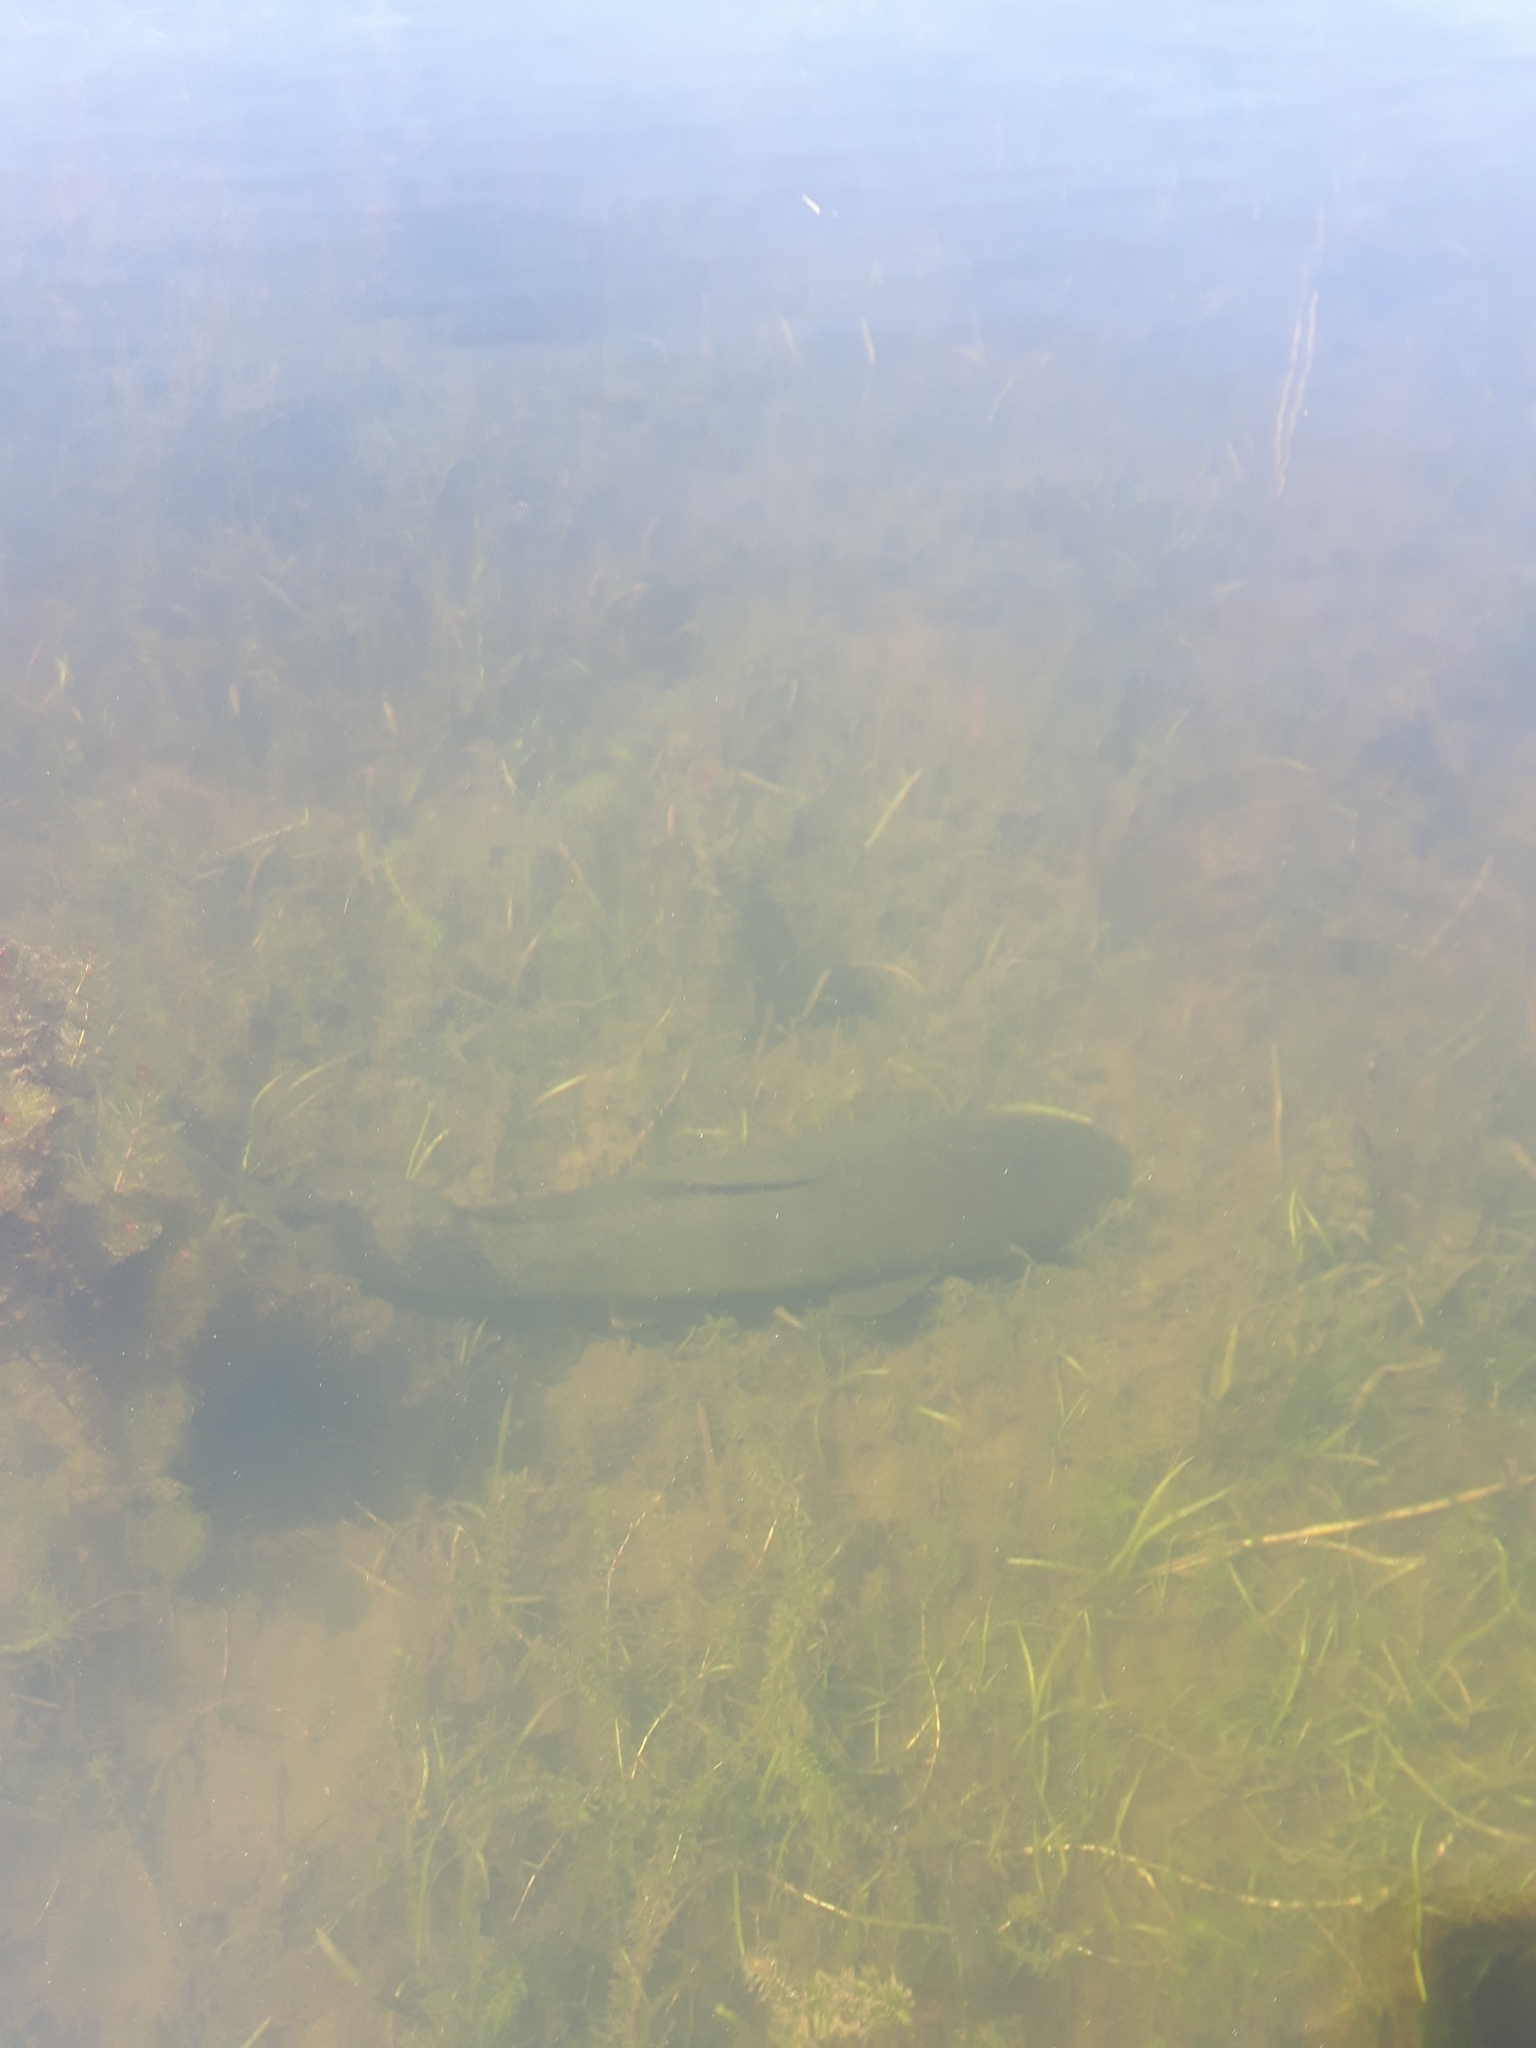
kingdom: Animalia
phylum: Chordata
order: Amiiformes
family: Amiidae
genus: Amia
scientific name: Amia calva
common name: Bowfin
